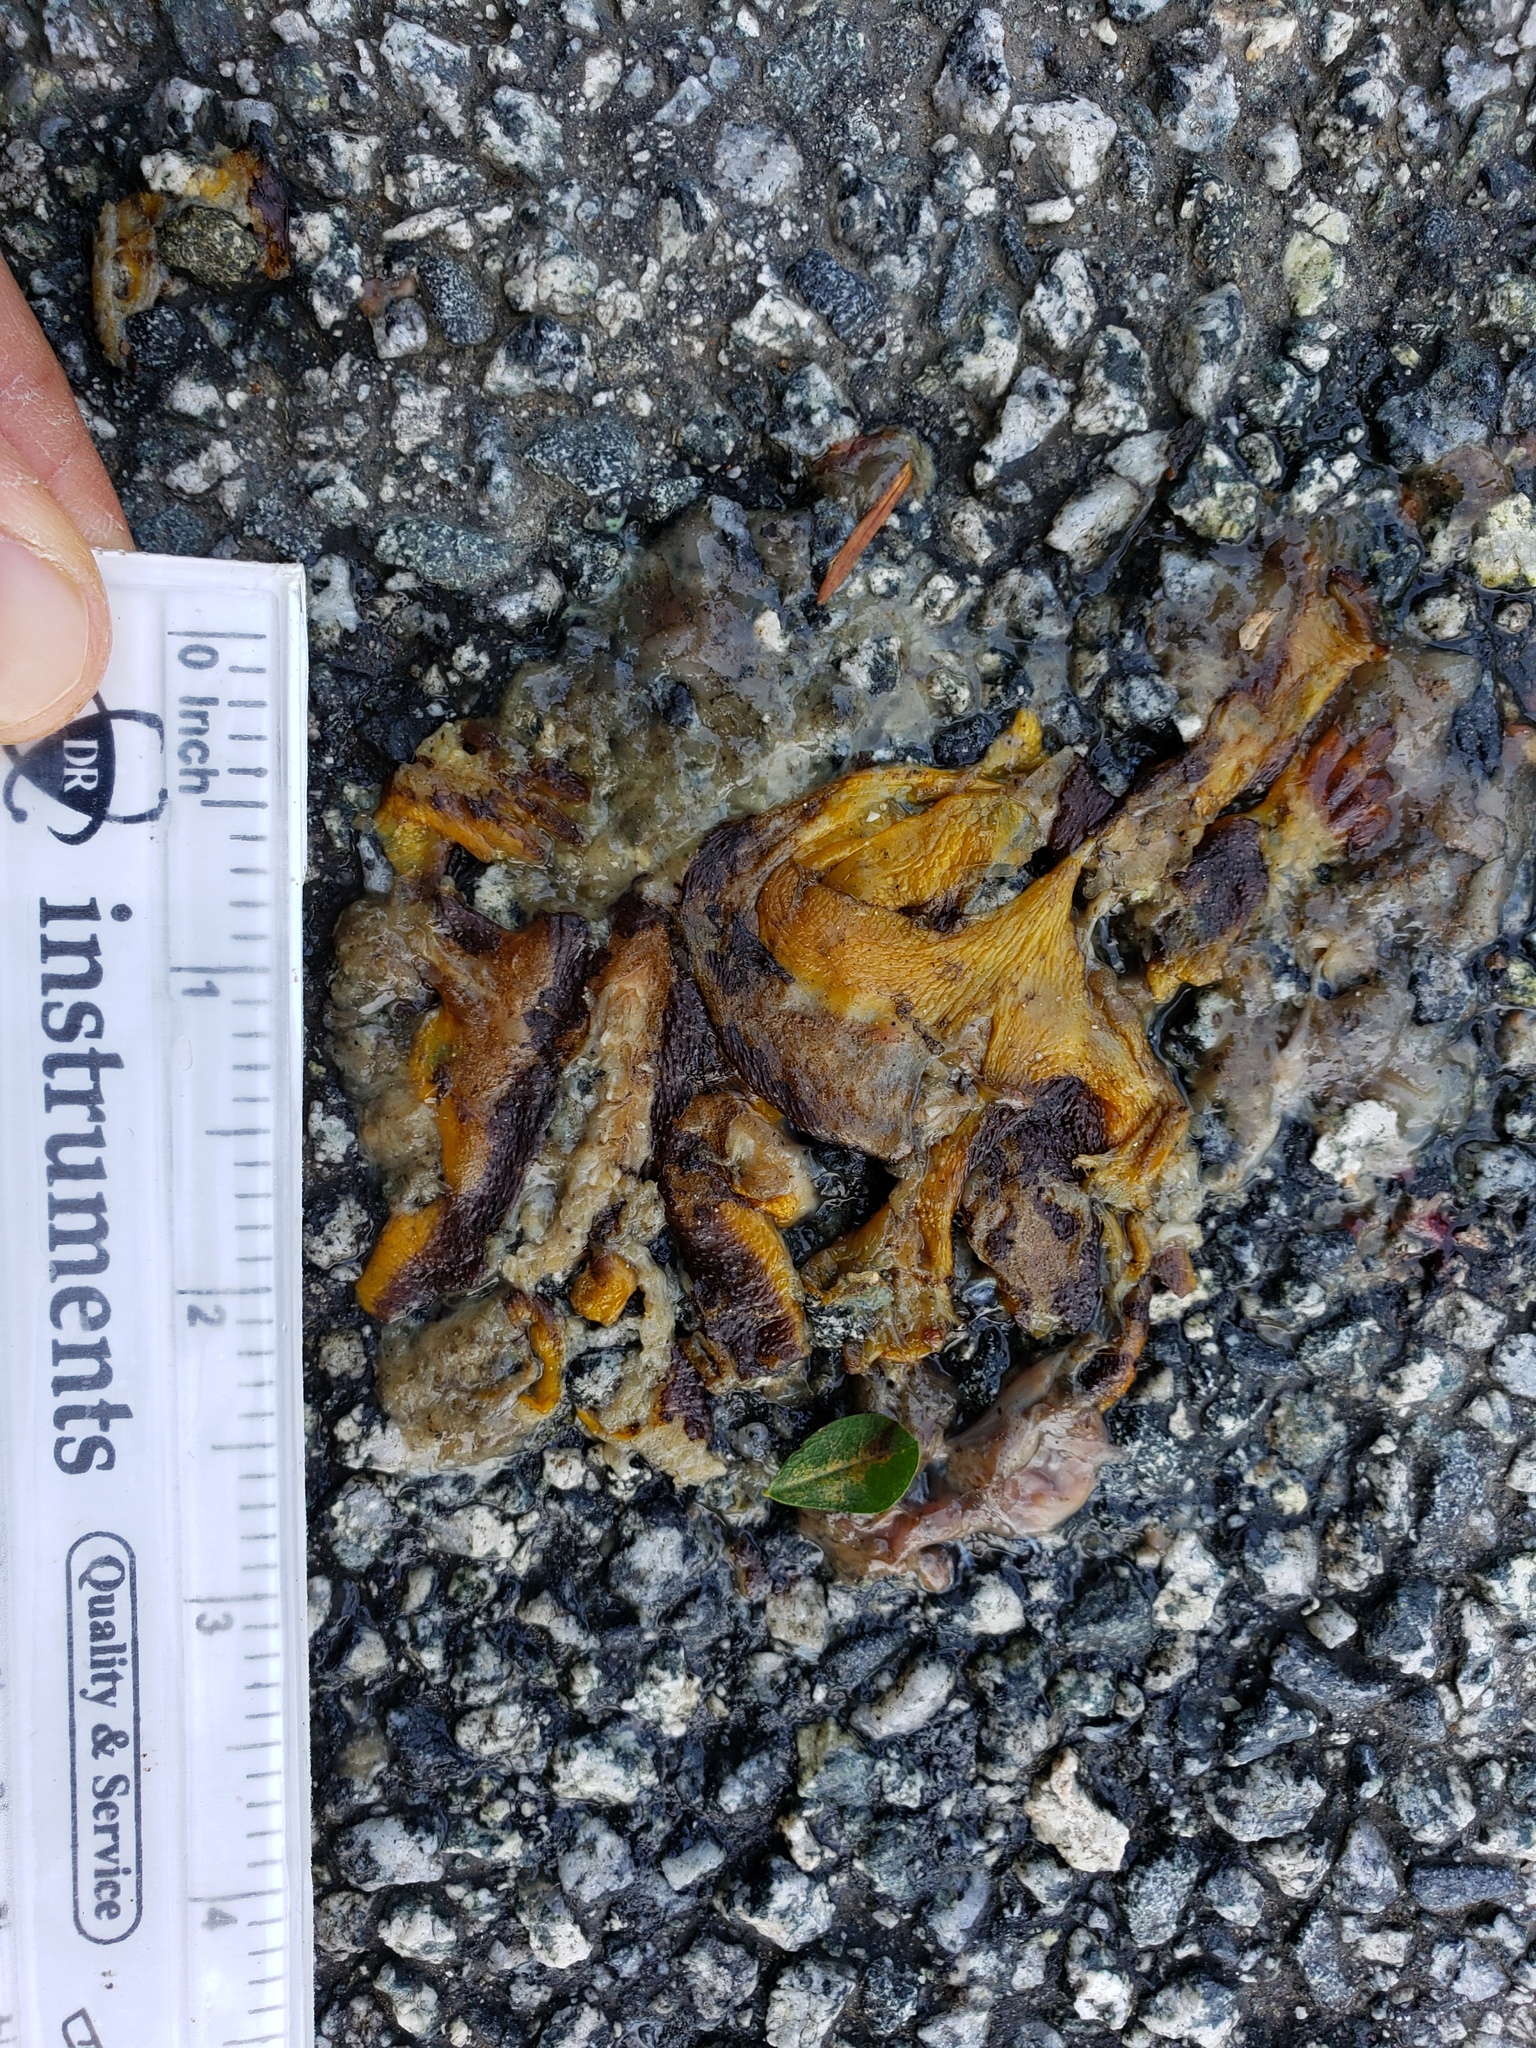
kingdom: Animalia
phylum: Chordata
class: Amphibia
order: Caudata
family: Salamandridae
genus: Taricha
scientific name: Taricha
